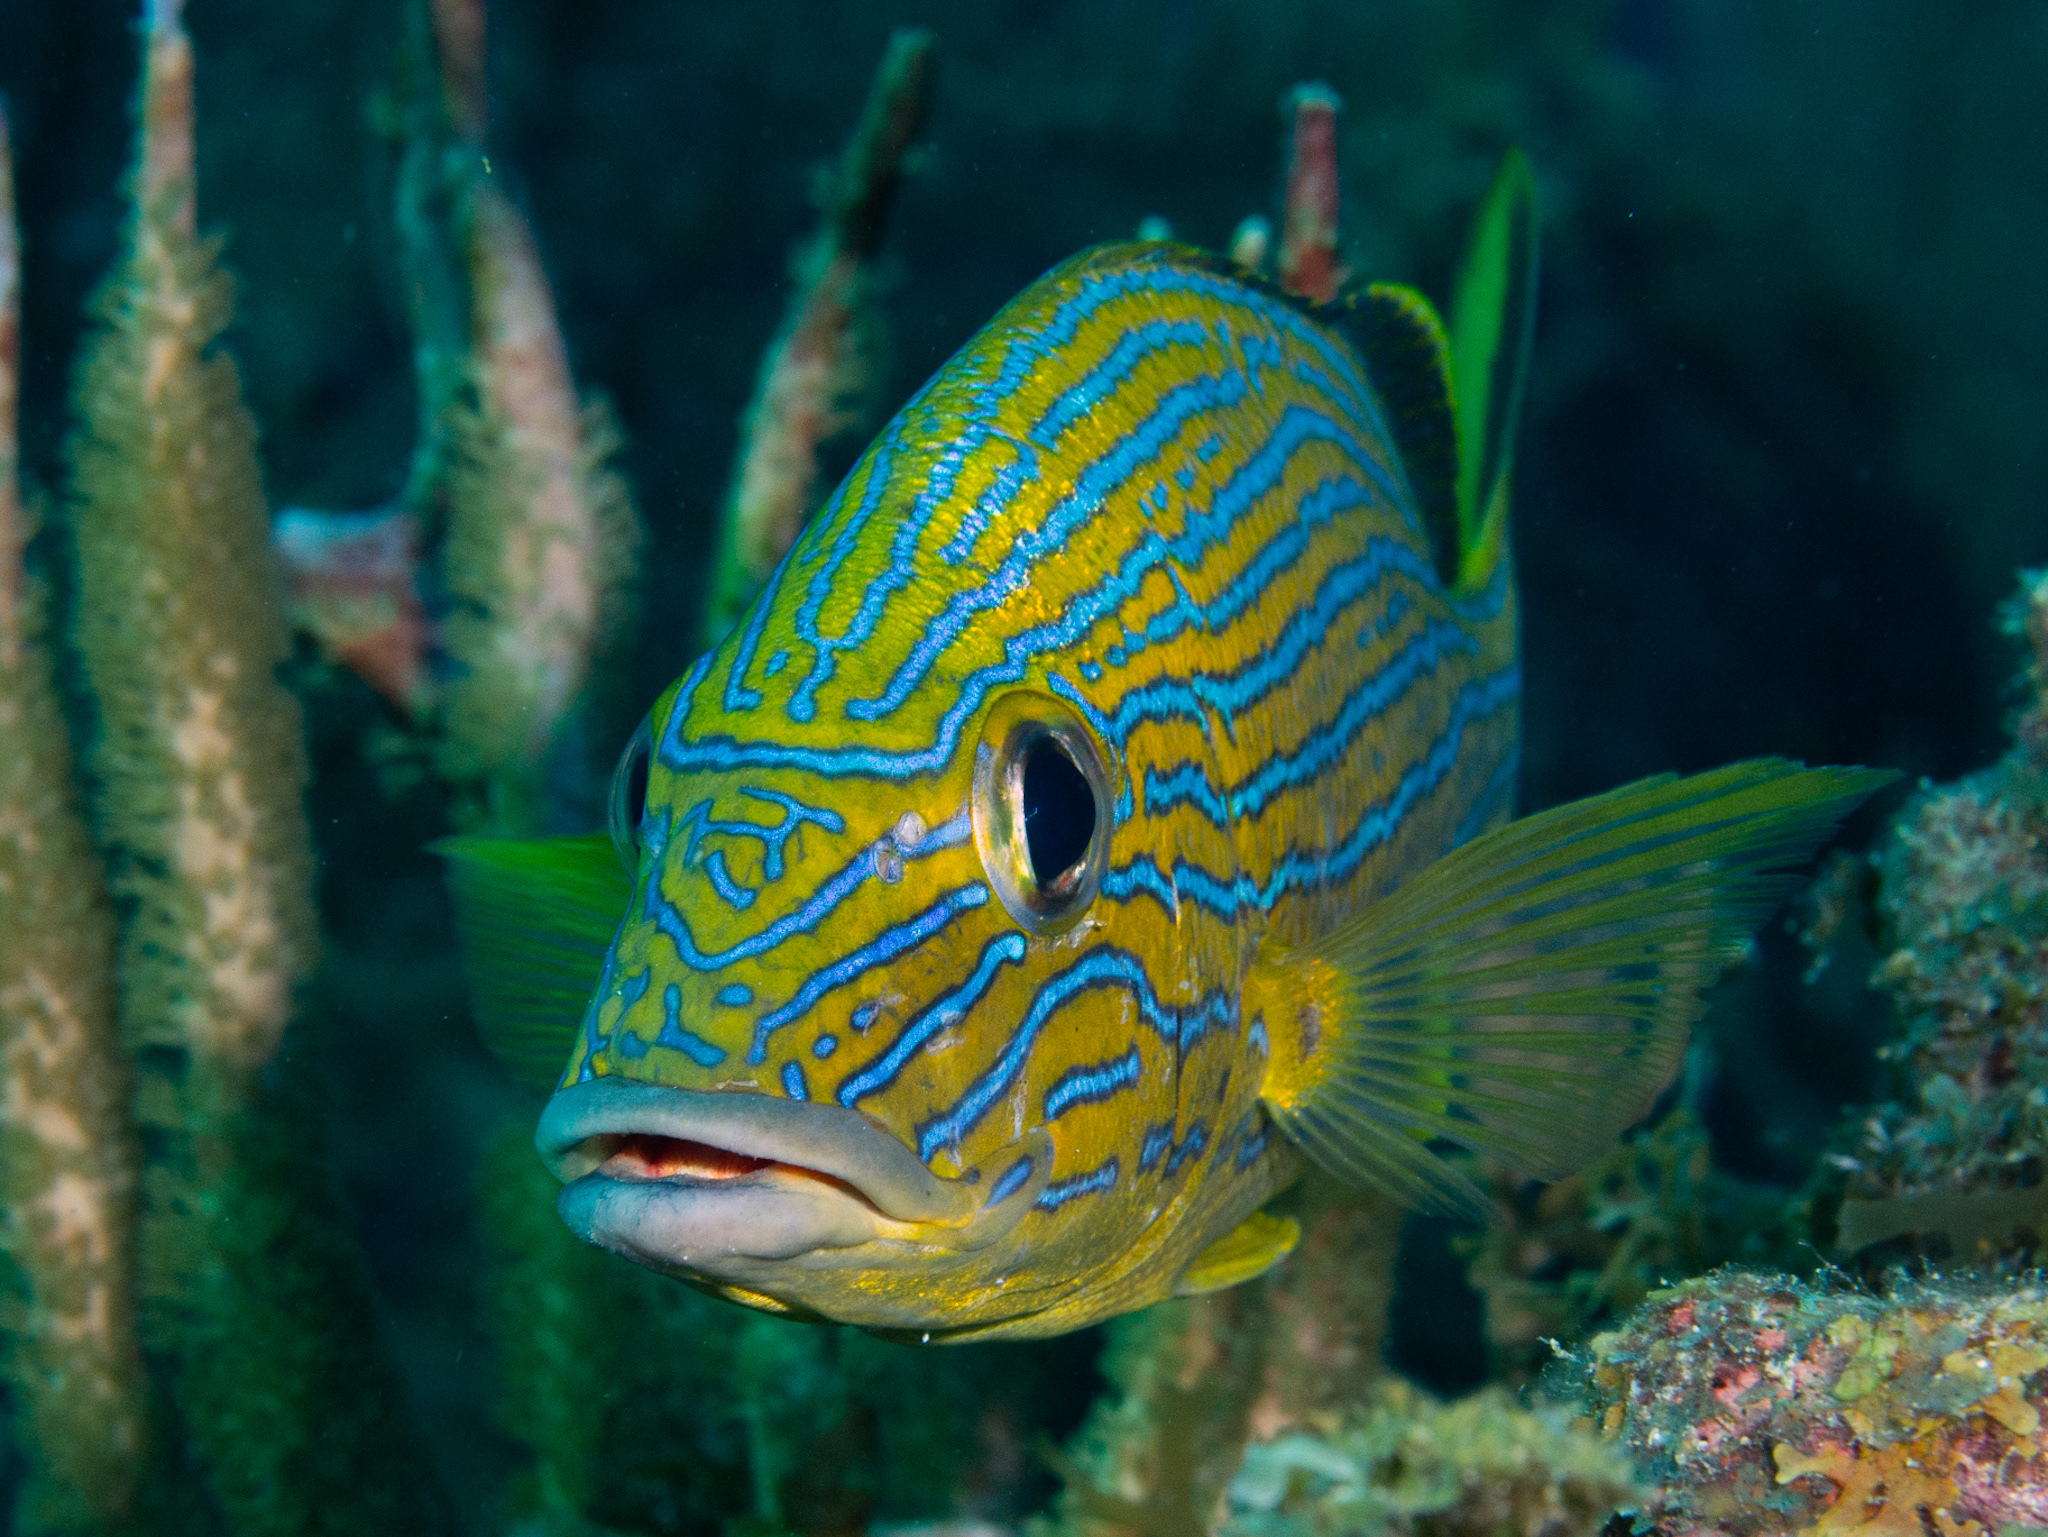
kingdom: Animalia
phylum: Chordata
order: Perciformes
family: Haemulidae
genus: Haemulon
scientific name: Haemulon sciurus
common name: Bluestriped grunt
